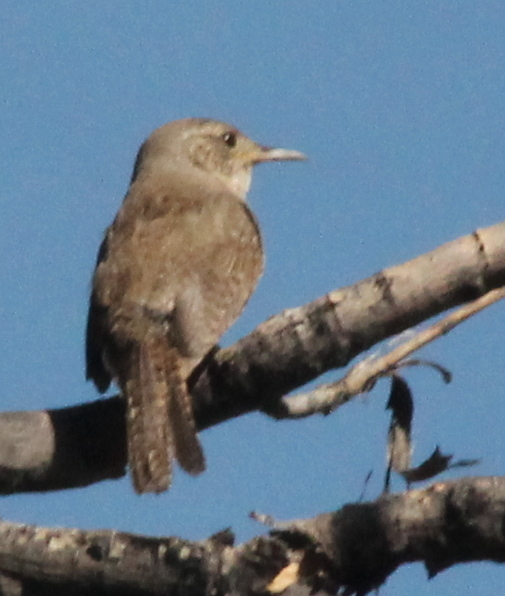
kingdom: Animalia
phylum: Chordata
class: Aves
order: Passeriformes
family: Troglodytidae
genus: Troglodytes
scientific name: Troglodytes aedon
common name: House wren
